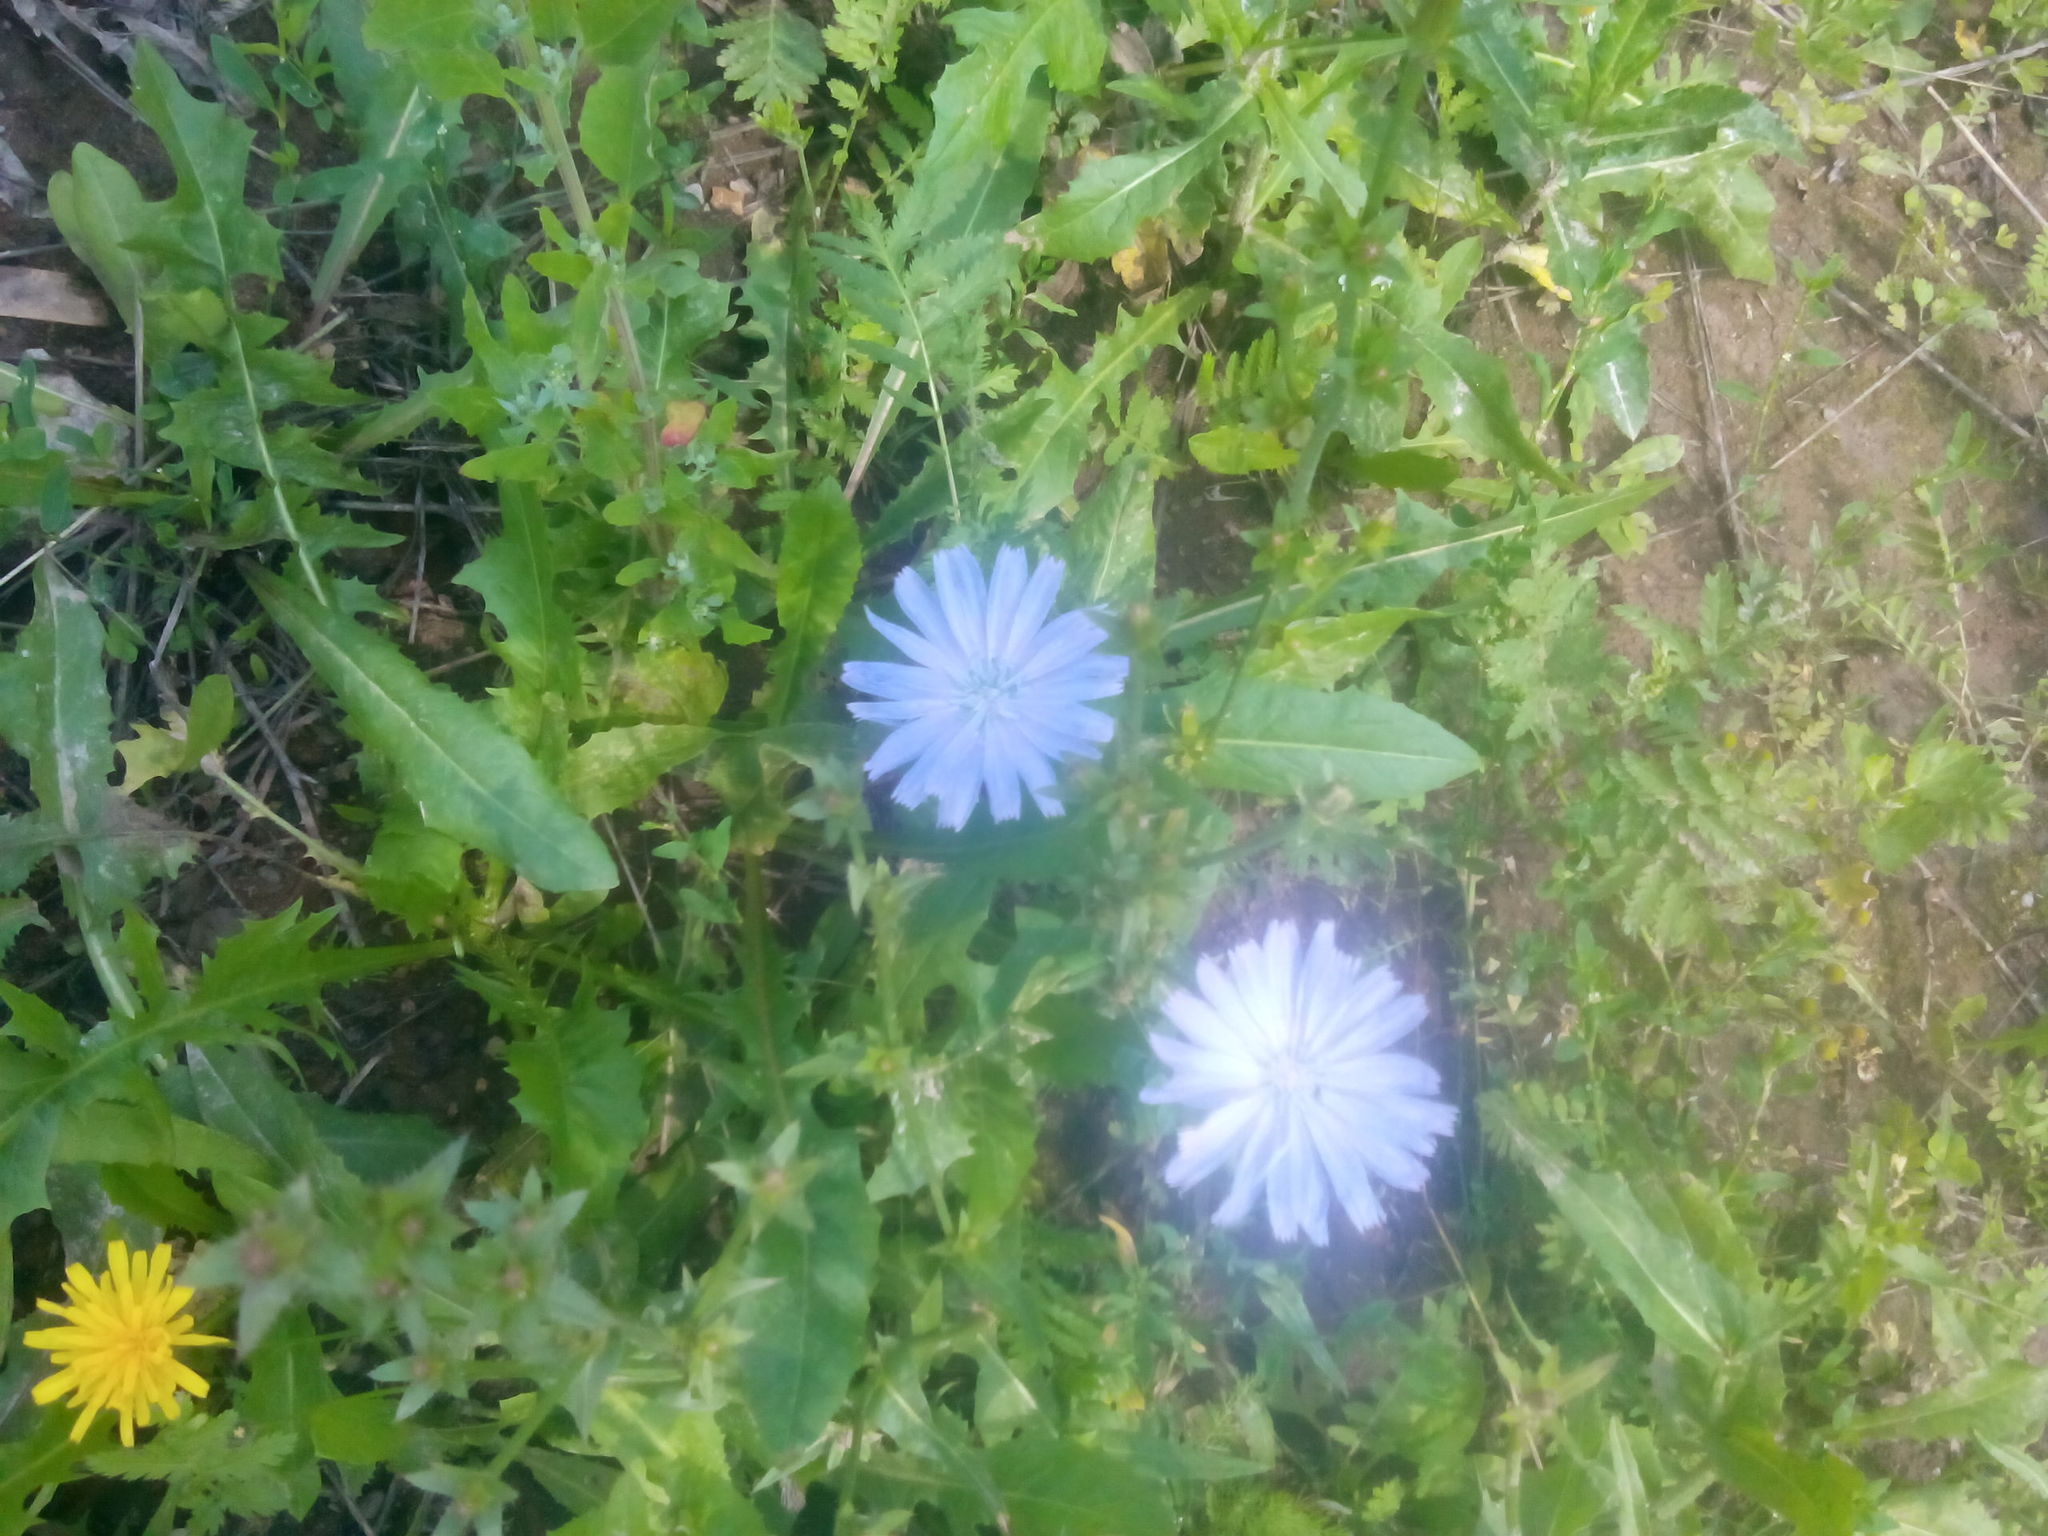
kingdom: Plantae
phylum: Tracheophyta
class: Magnoliopsida
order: Asterales
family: Asteraceae
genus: Cichorium
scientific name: Cichorium intybus
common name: Chicory
